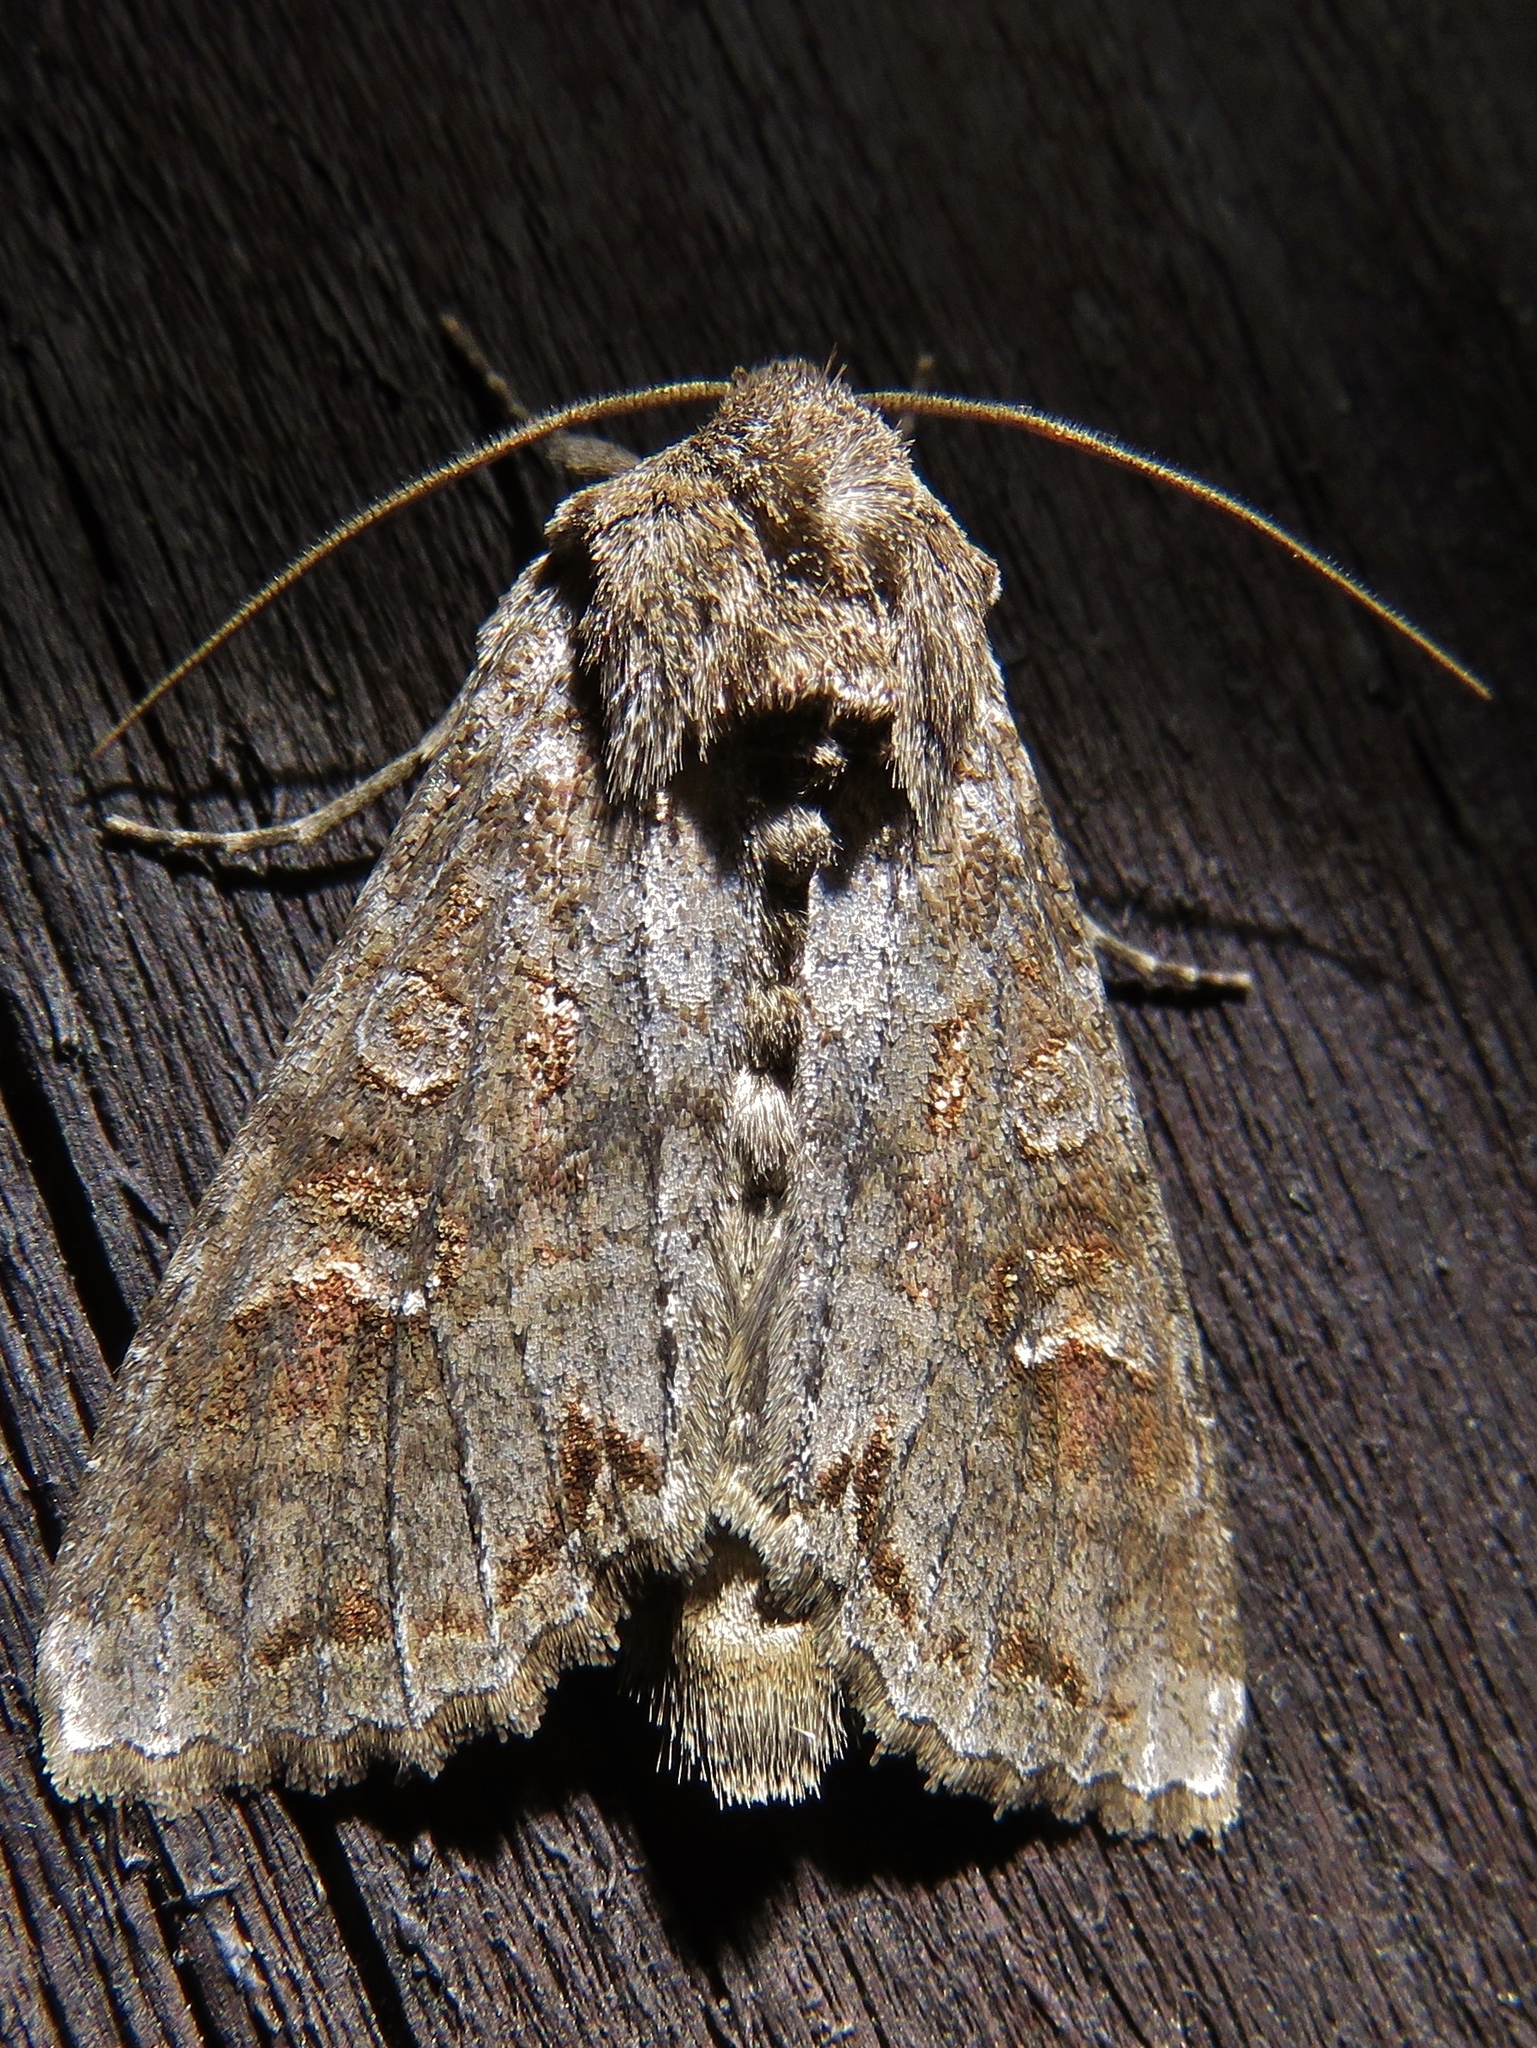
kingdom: Animalia
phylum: Arthropoda
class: Insecta
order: Lepidoptera
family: Noctuidae
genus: Polia
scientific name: Polia bombycina
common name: Pale shining brown
